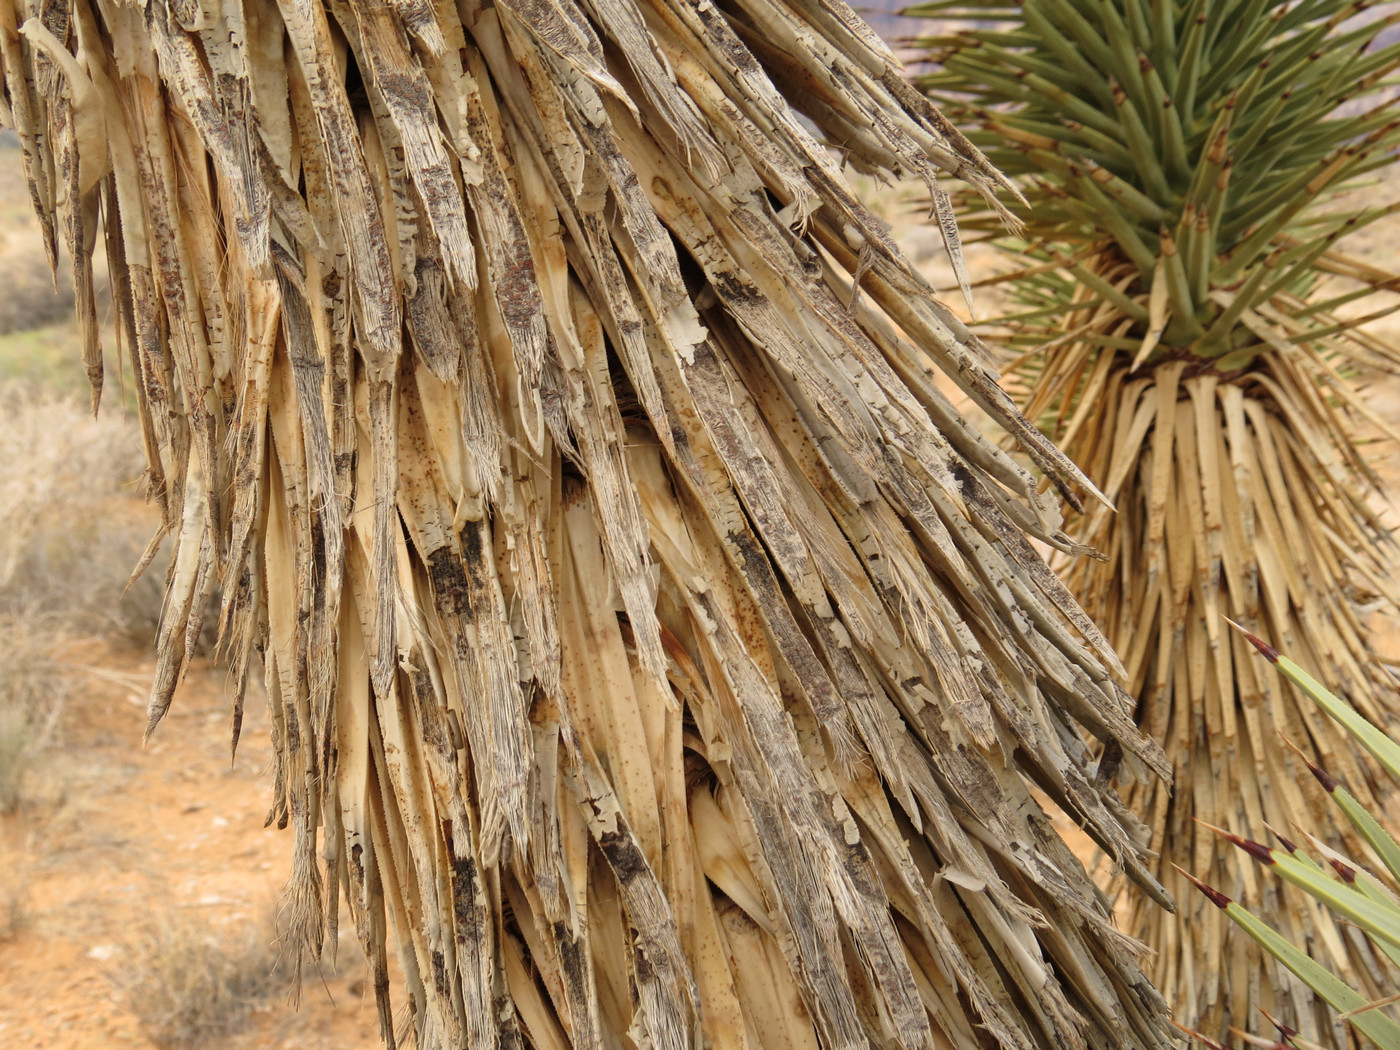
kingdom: Plantae
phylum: Tracheophyta
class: Liliopsida
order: Asparagales
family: Asparagaceae
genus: Yucca
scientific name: Yucca brevifolia
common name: Joshua tree
